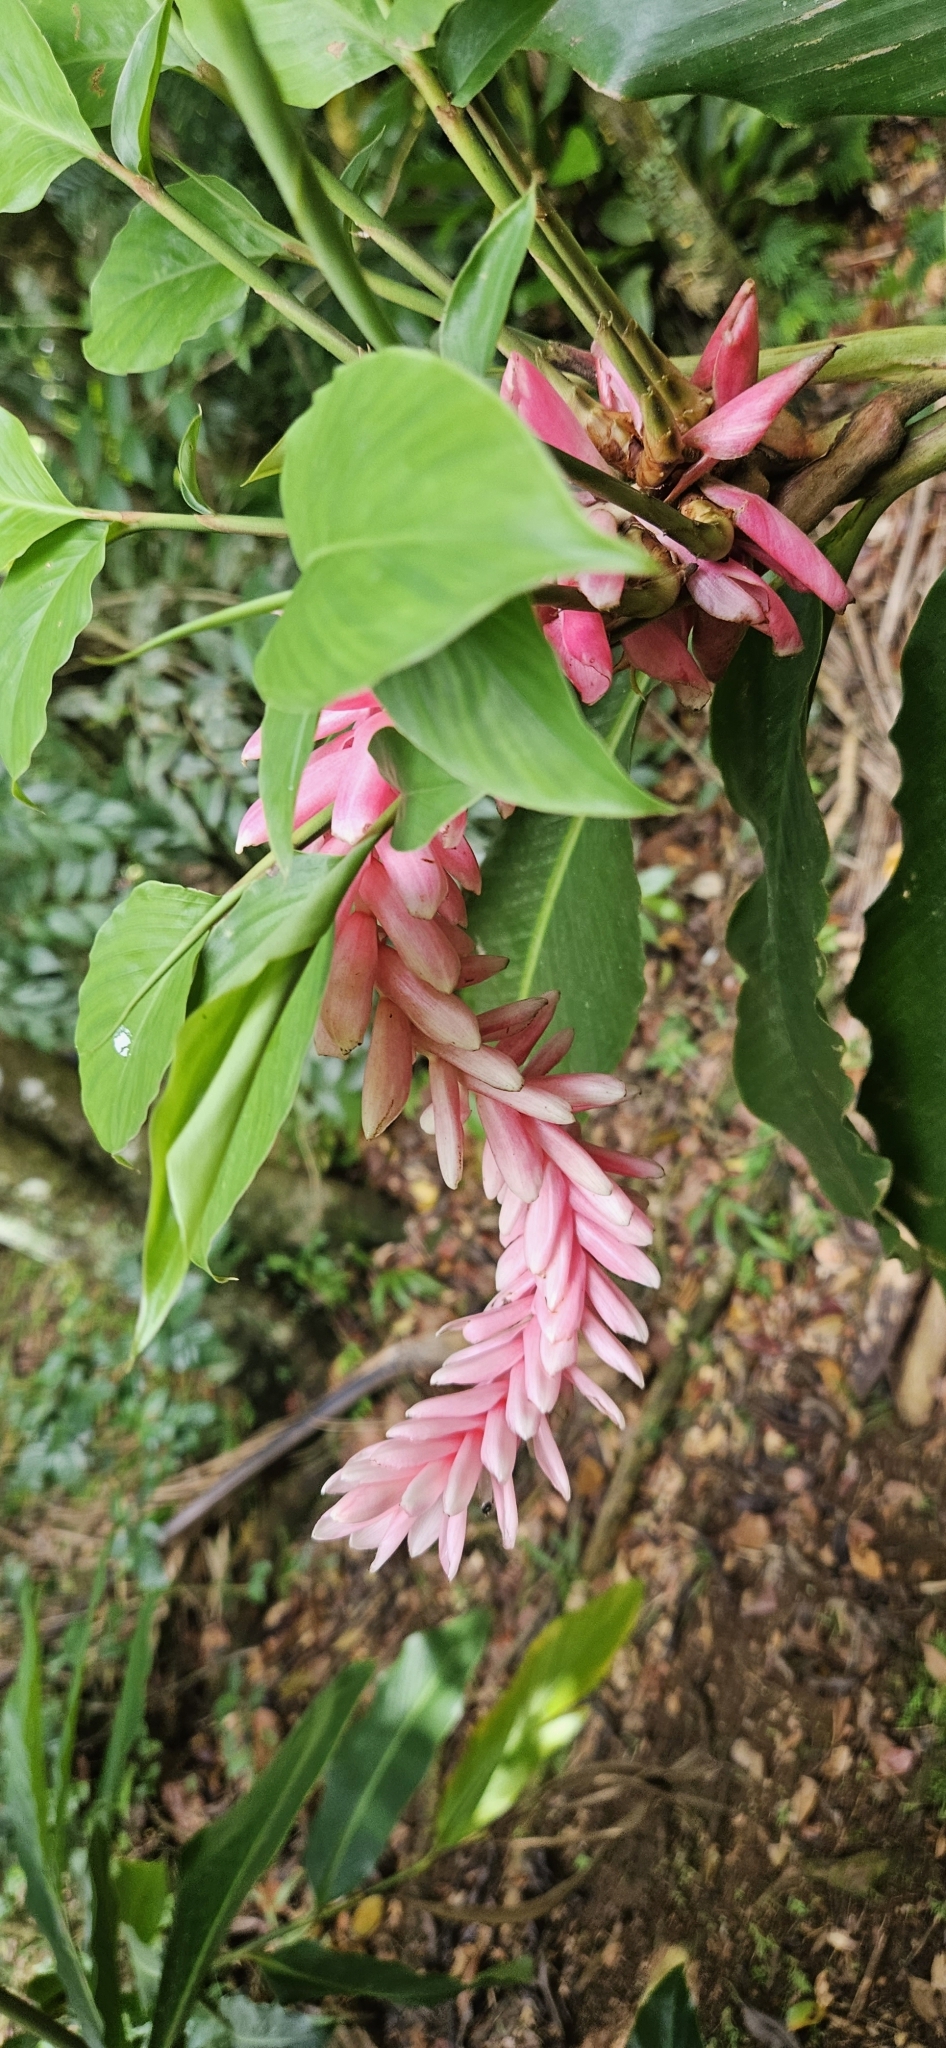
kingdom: Plantae
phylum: Tracheophyta
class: Liliopsida
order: Zingiberales
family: Zingiberaceae
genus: Alpinia
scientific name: Alpinia purpurata
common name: Red ginger
